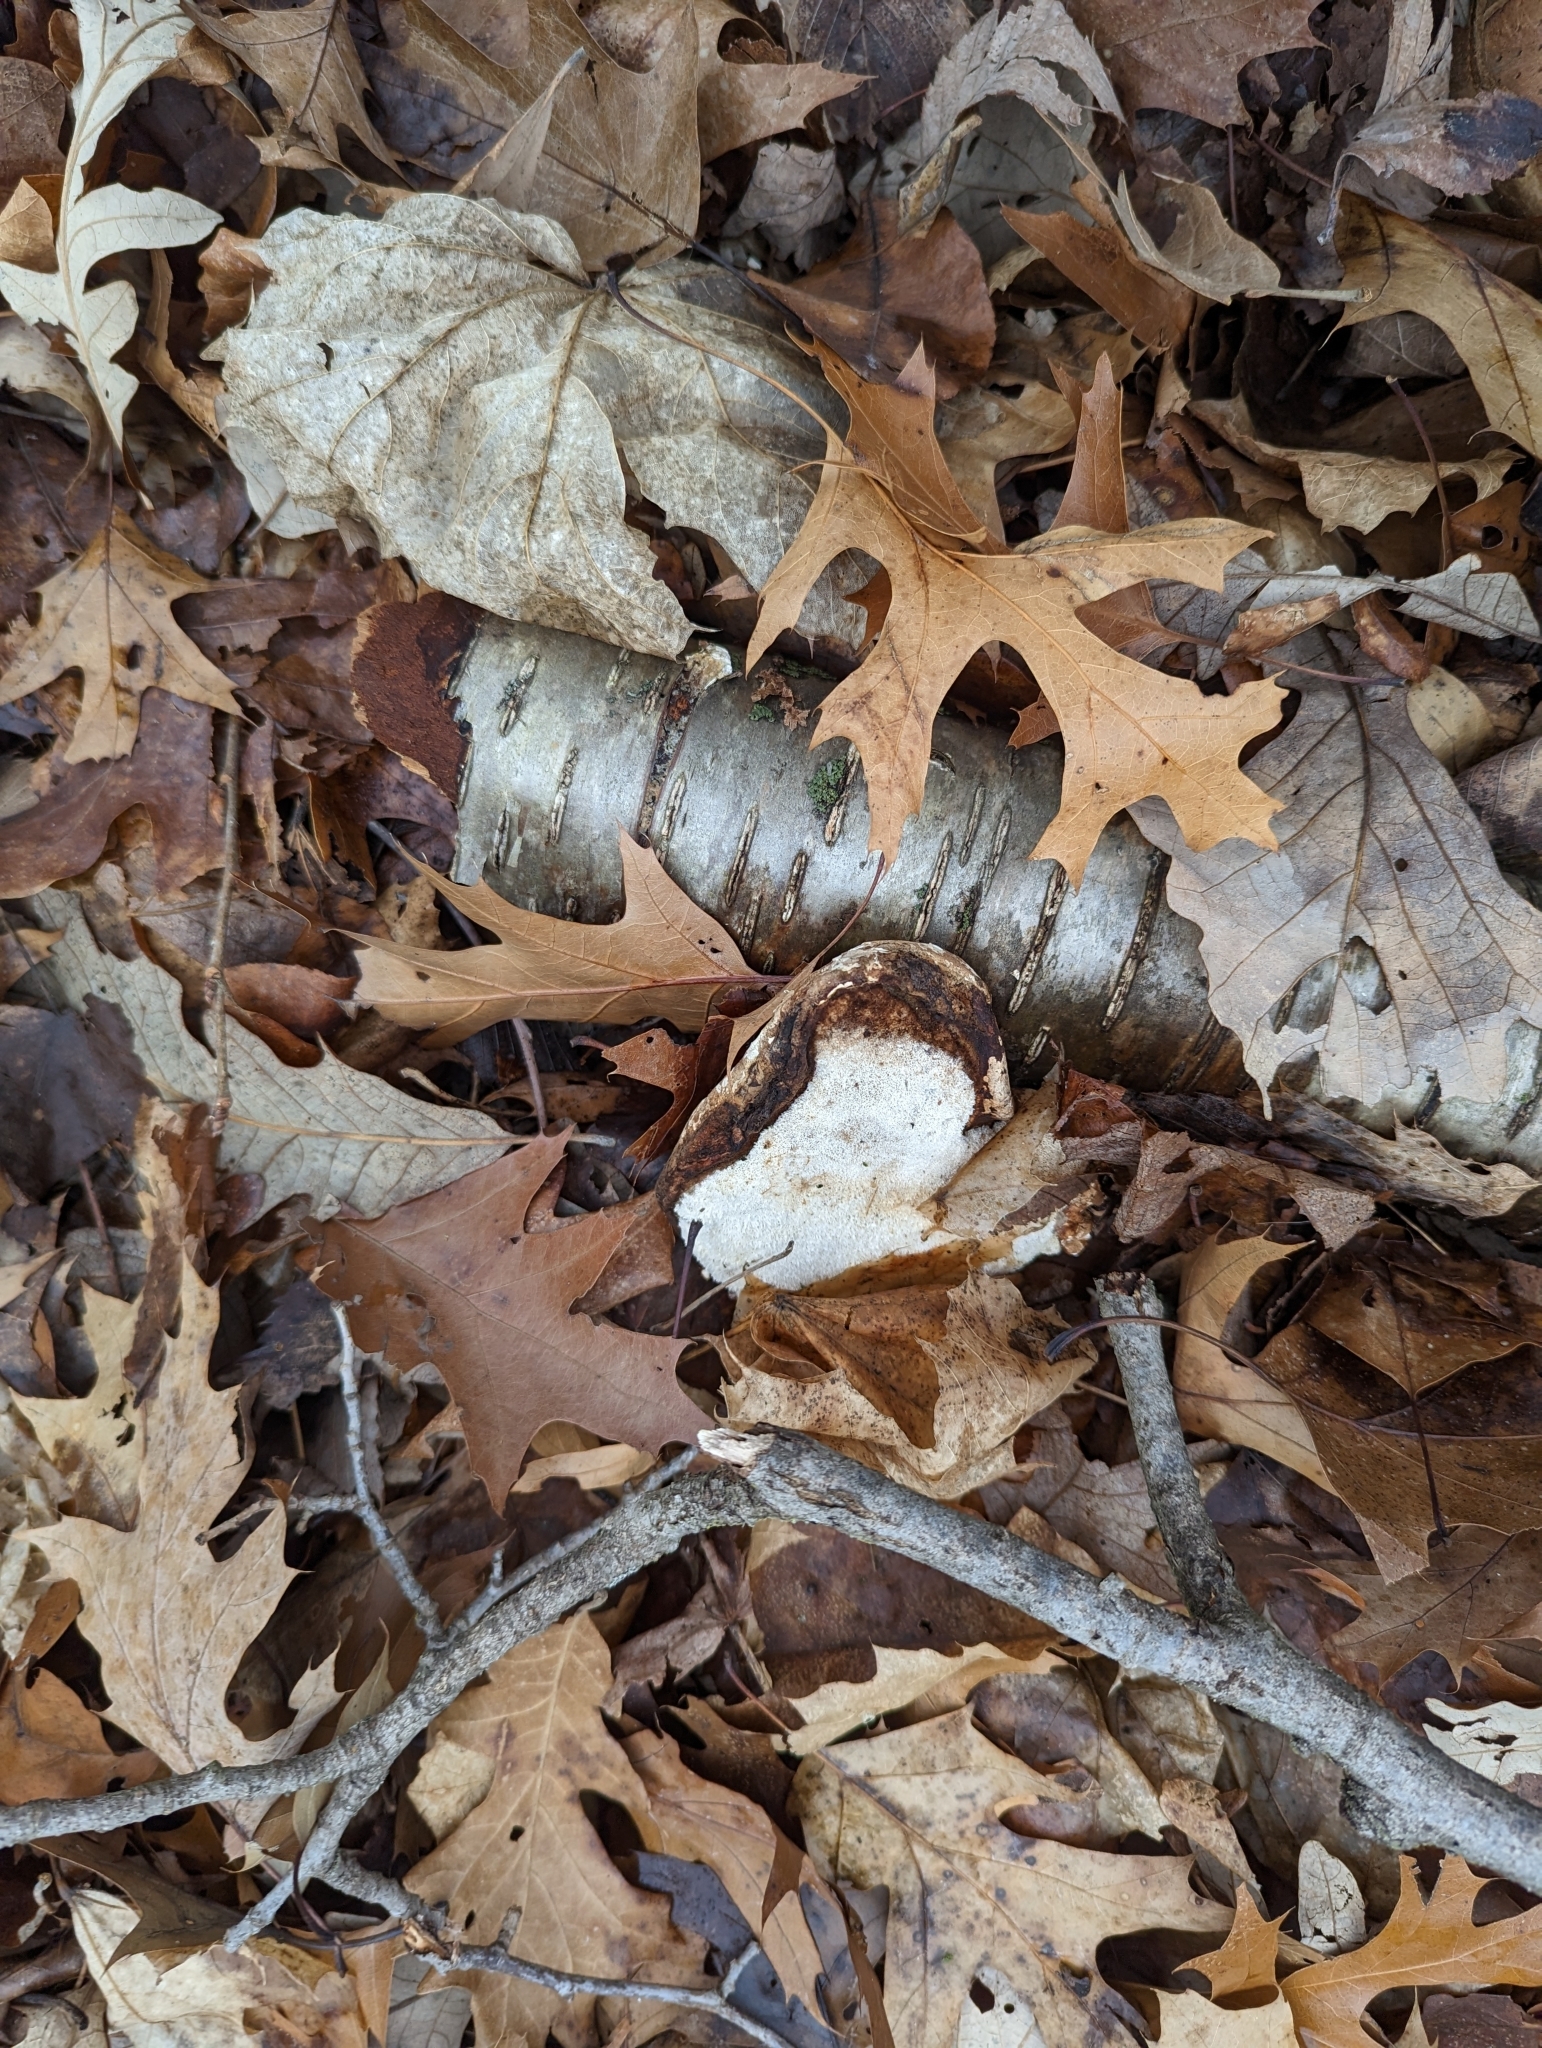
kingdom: Fungi
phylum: Basidiomycota
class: Agaricomycetes
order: Polyporales
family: Fomitopsidaceae
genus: Fomitopsis
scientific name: Fomitopsis betulina
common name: Birch polypore
